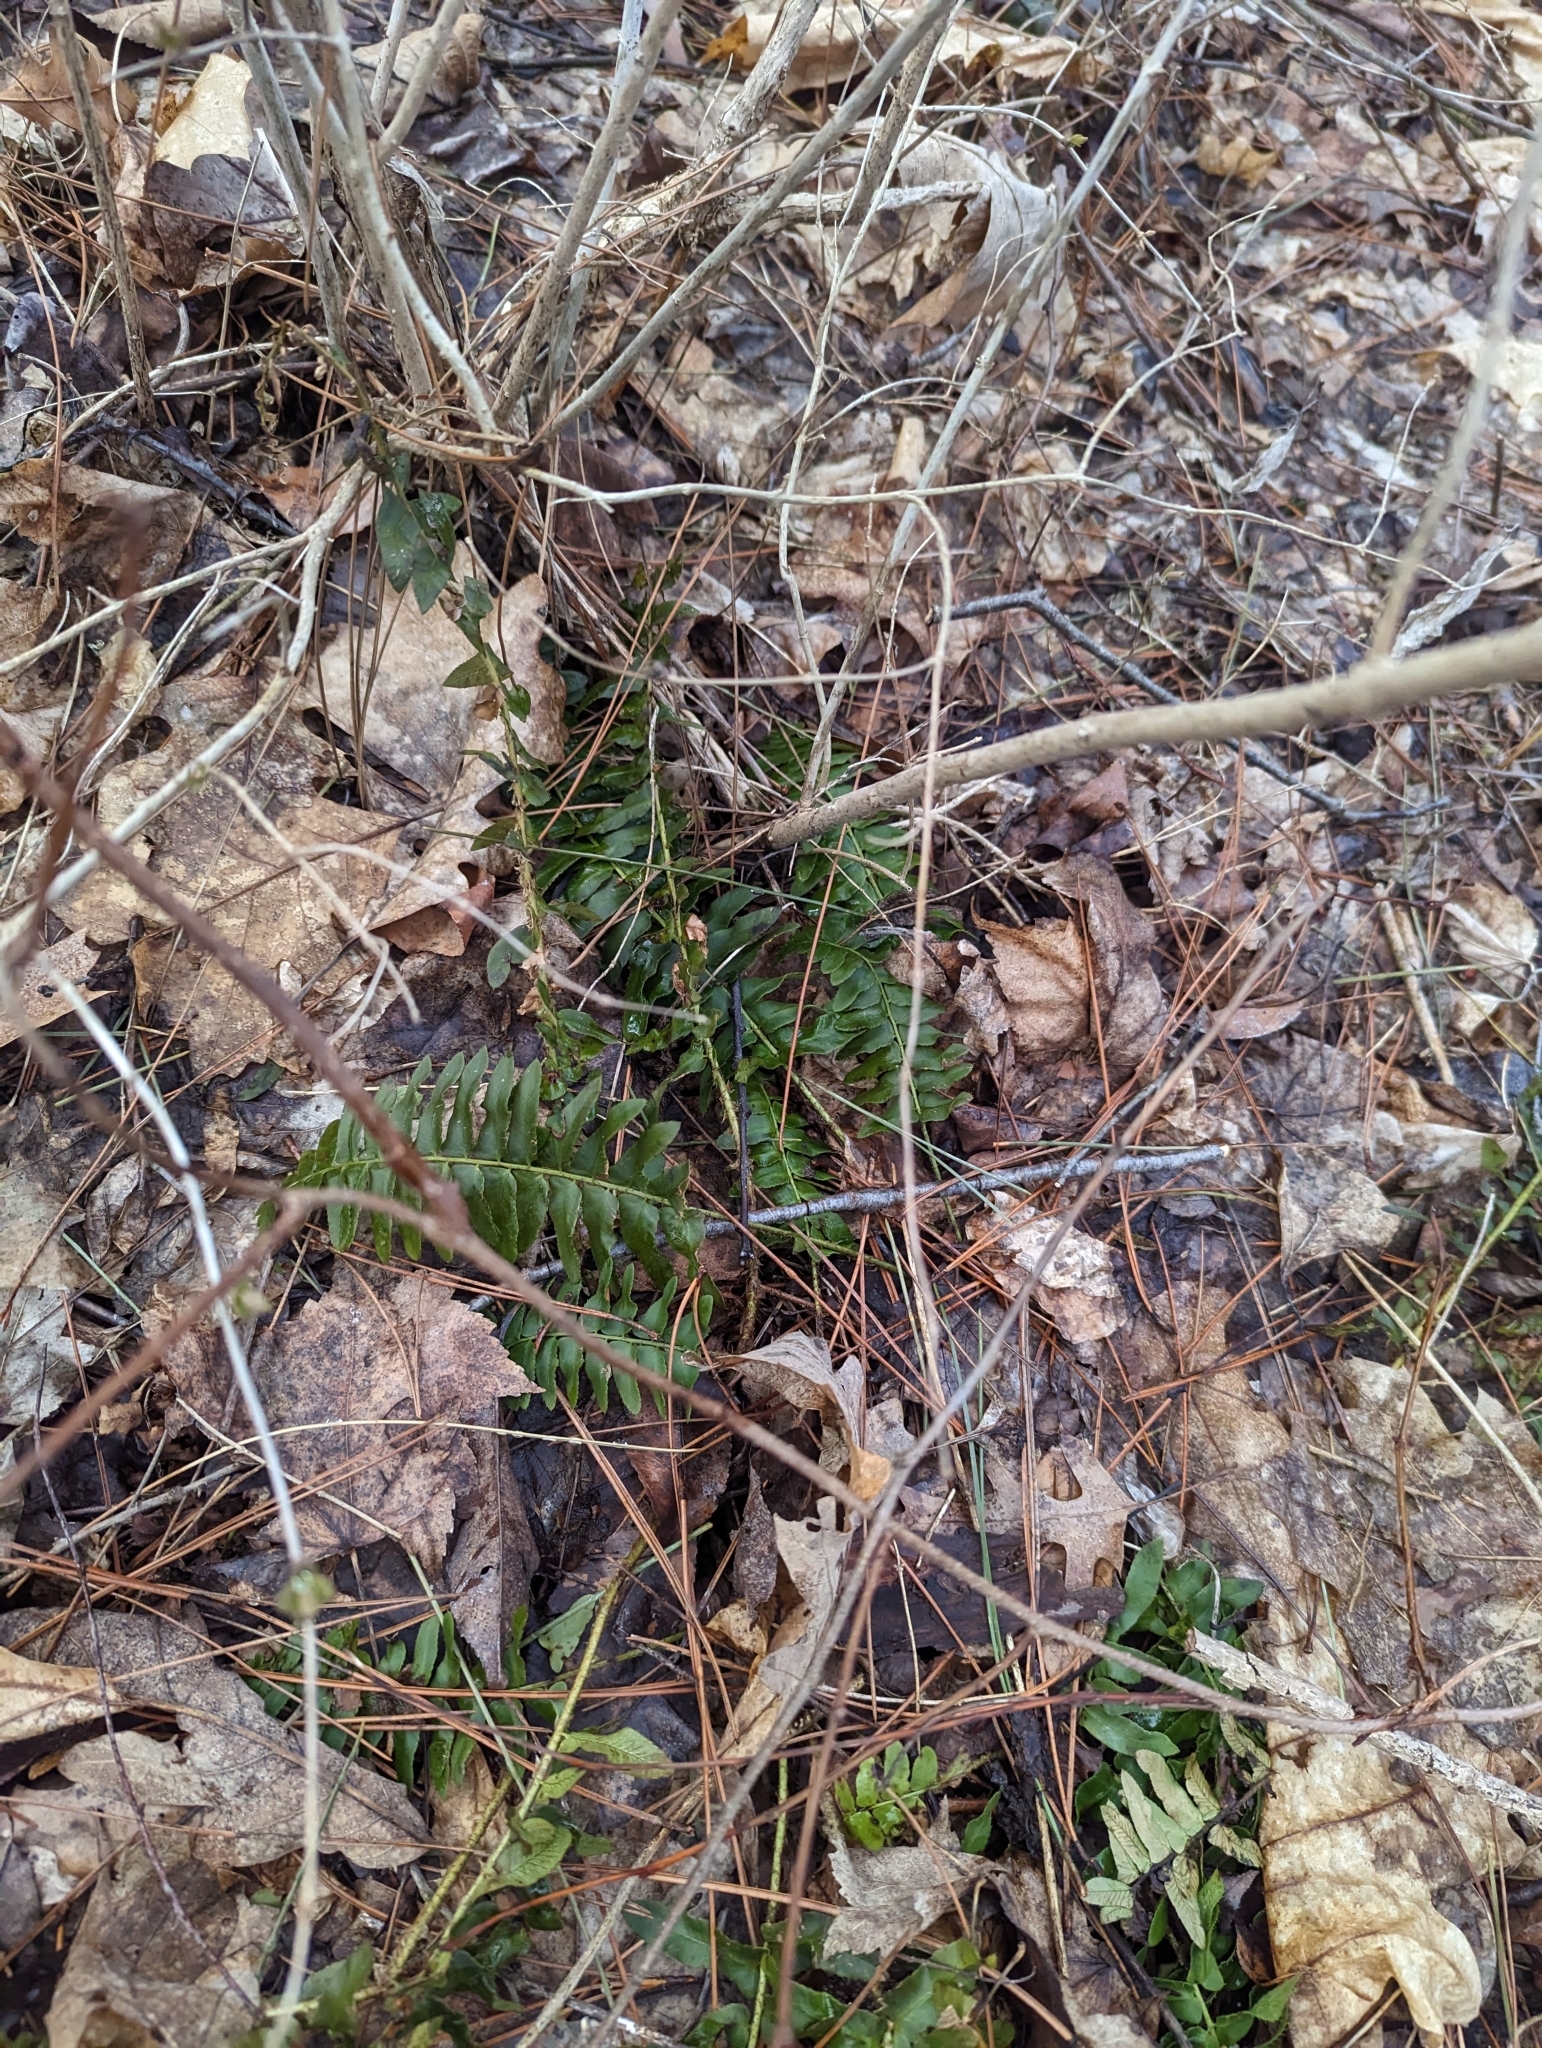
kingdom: Plantae
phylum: Tracheophyta
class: Polypodiopsida
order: Polypodiales
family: Dryopteridaceae
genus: Polystichum
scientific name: Polystichum acrostichoides
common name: Christmas fern
